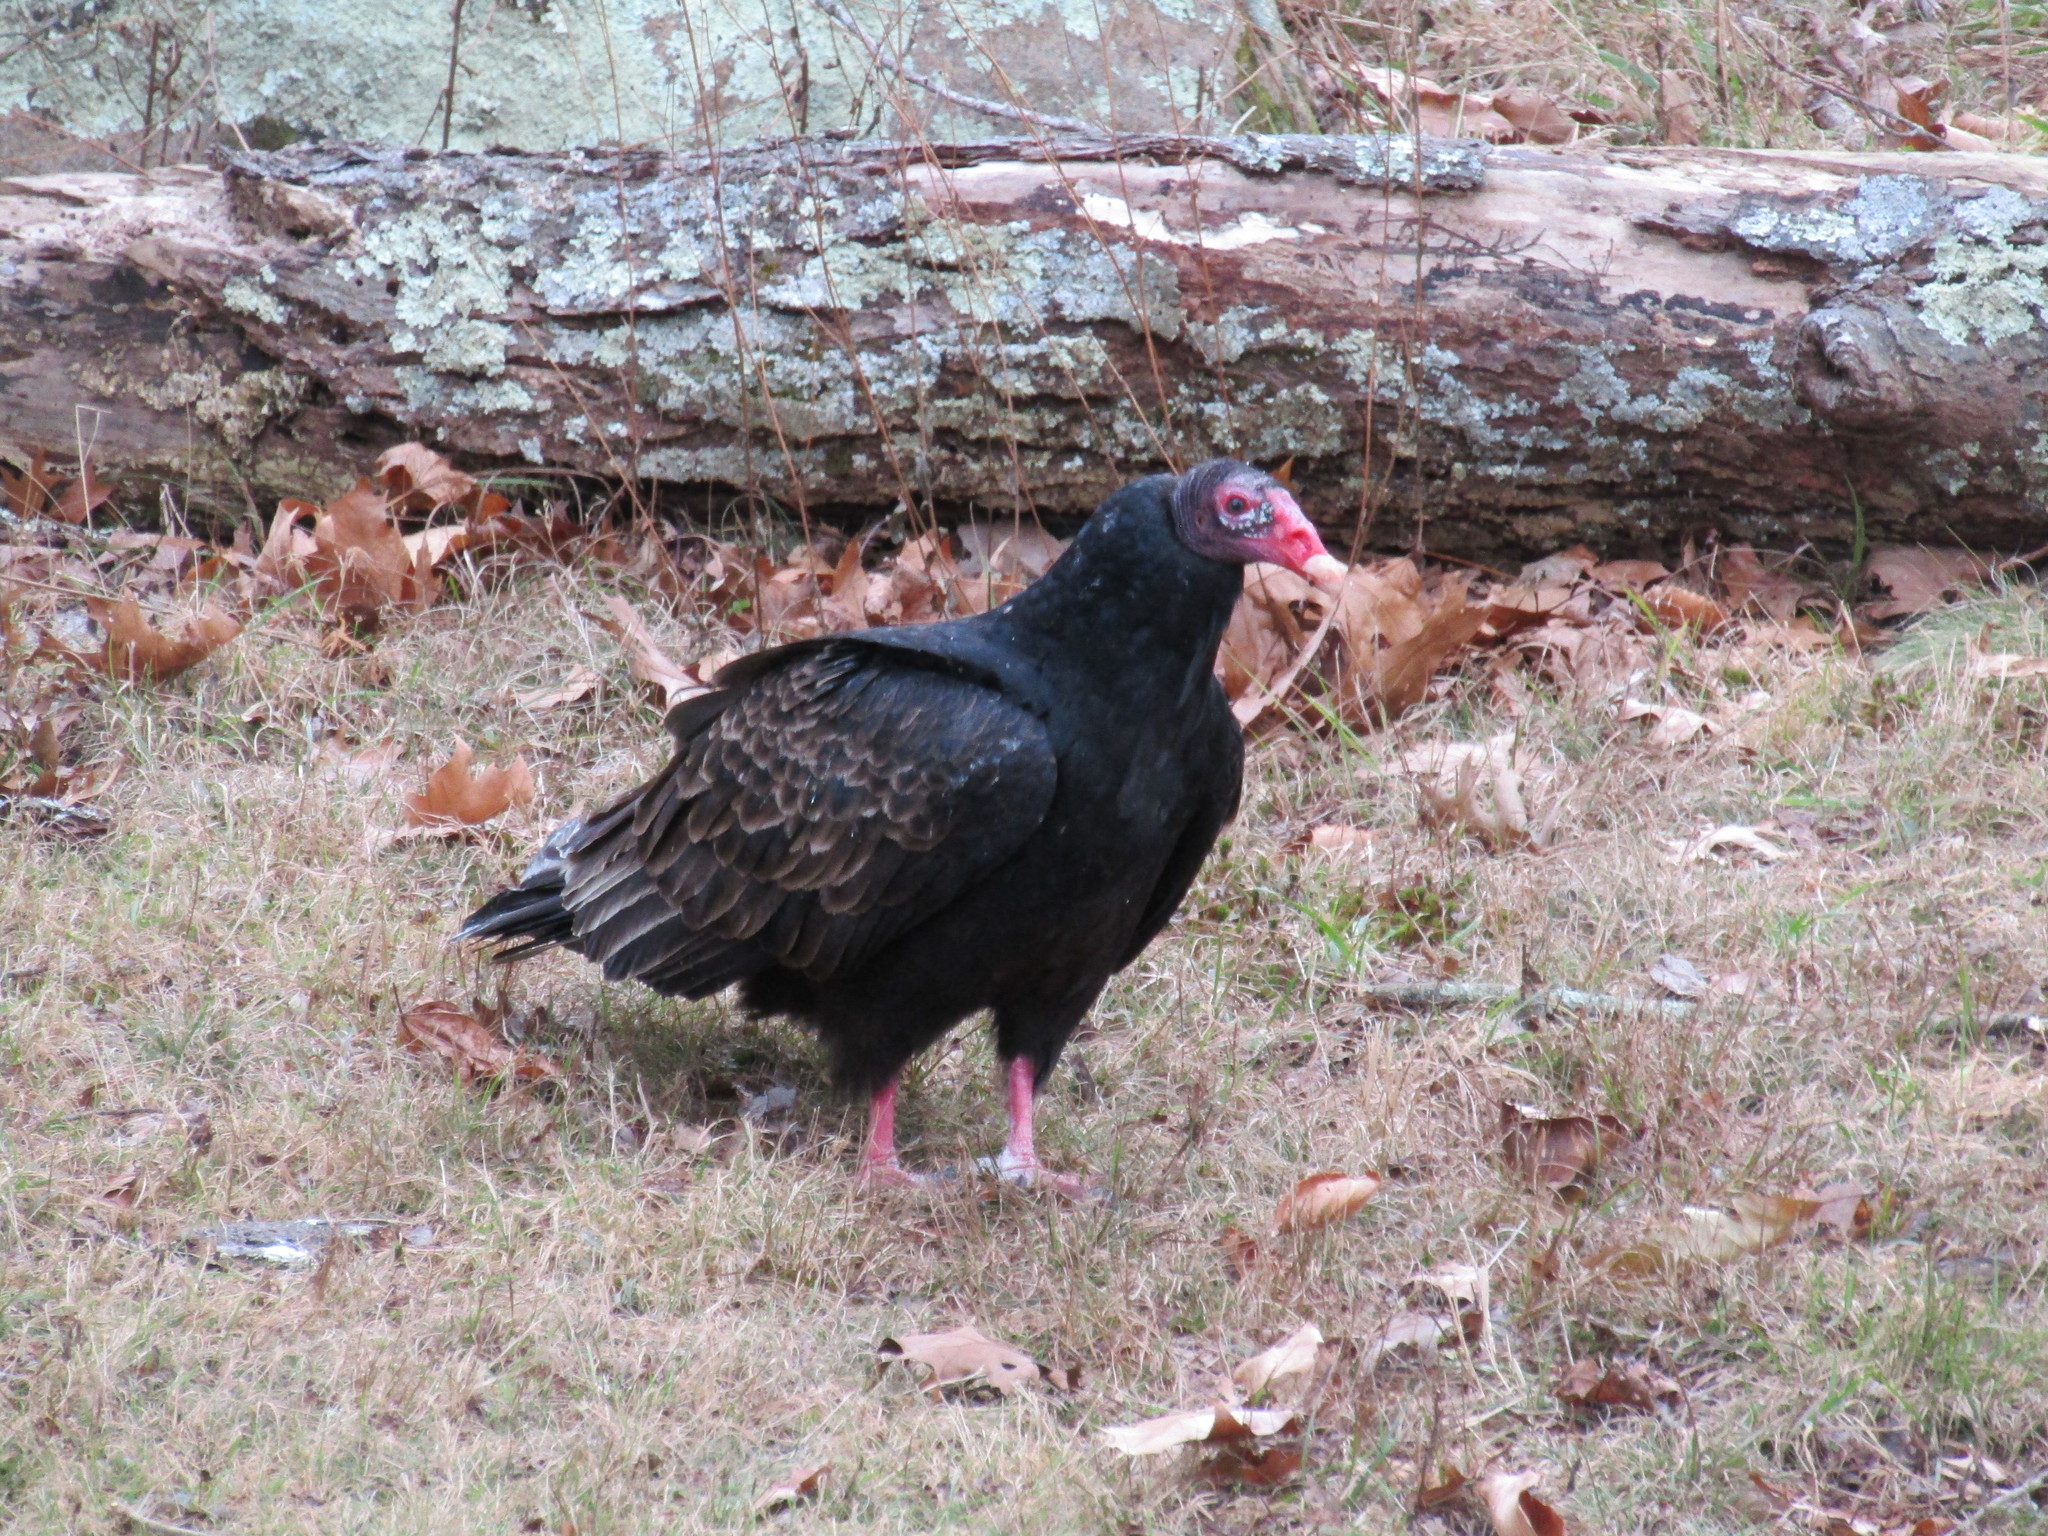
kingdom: Animalia
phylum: Chordata
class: Aves
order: Accipitriformes
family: Cathartidae
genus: Cathartes
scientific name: Cathartes aura
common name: Turkey vulture
